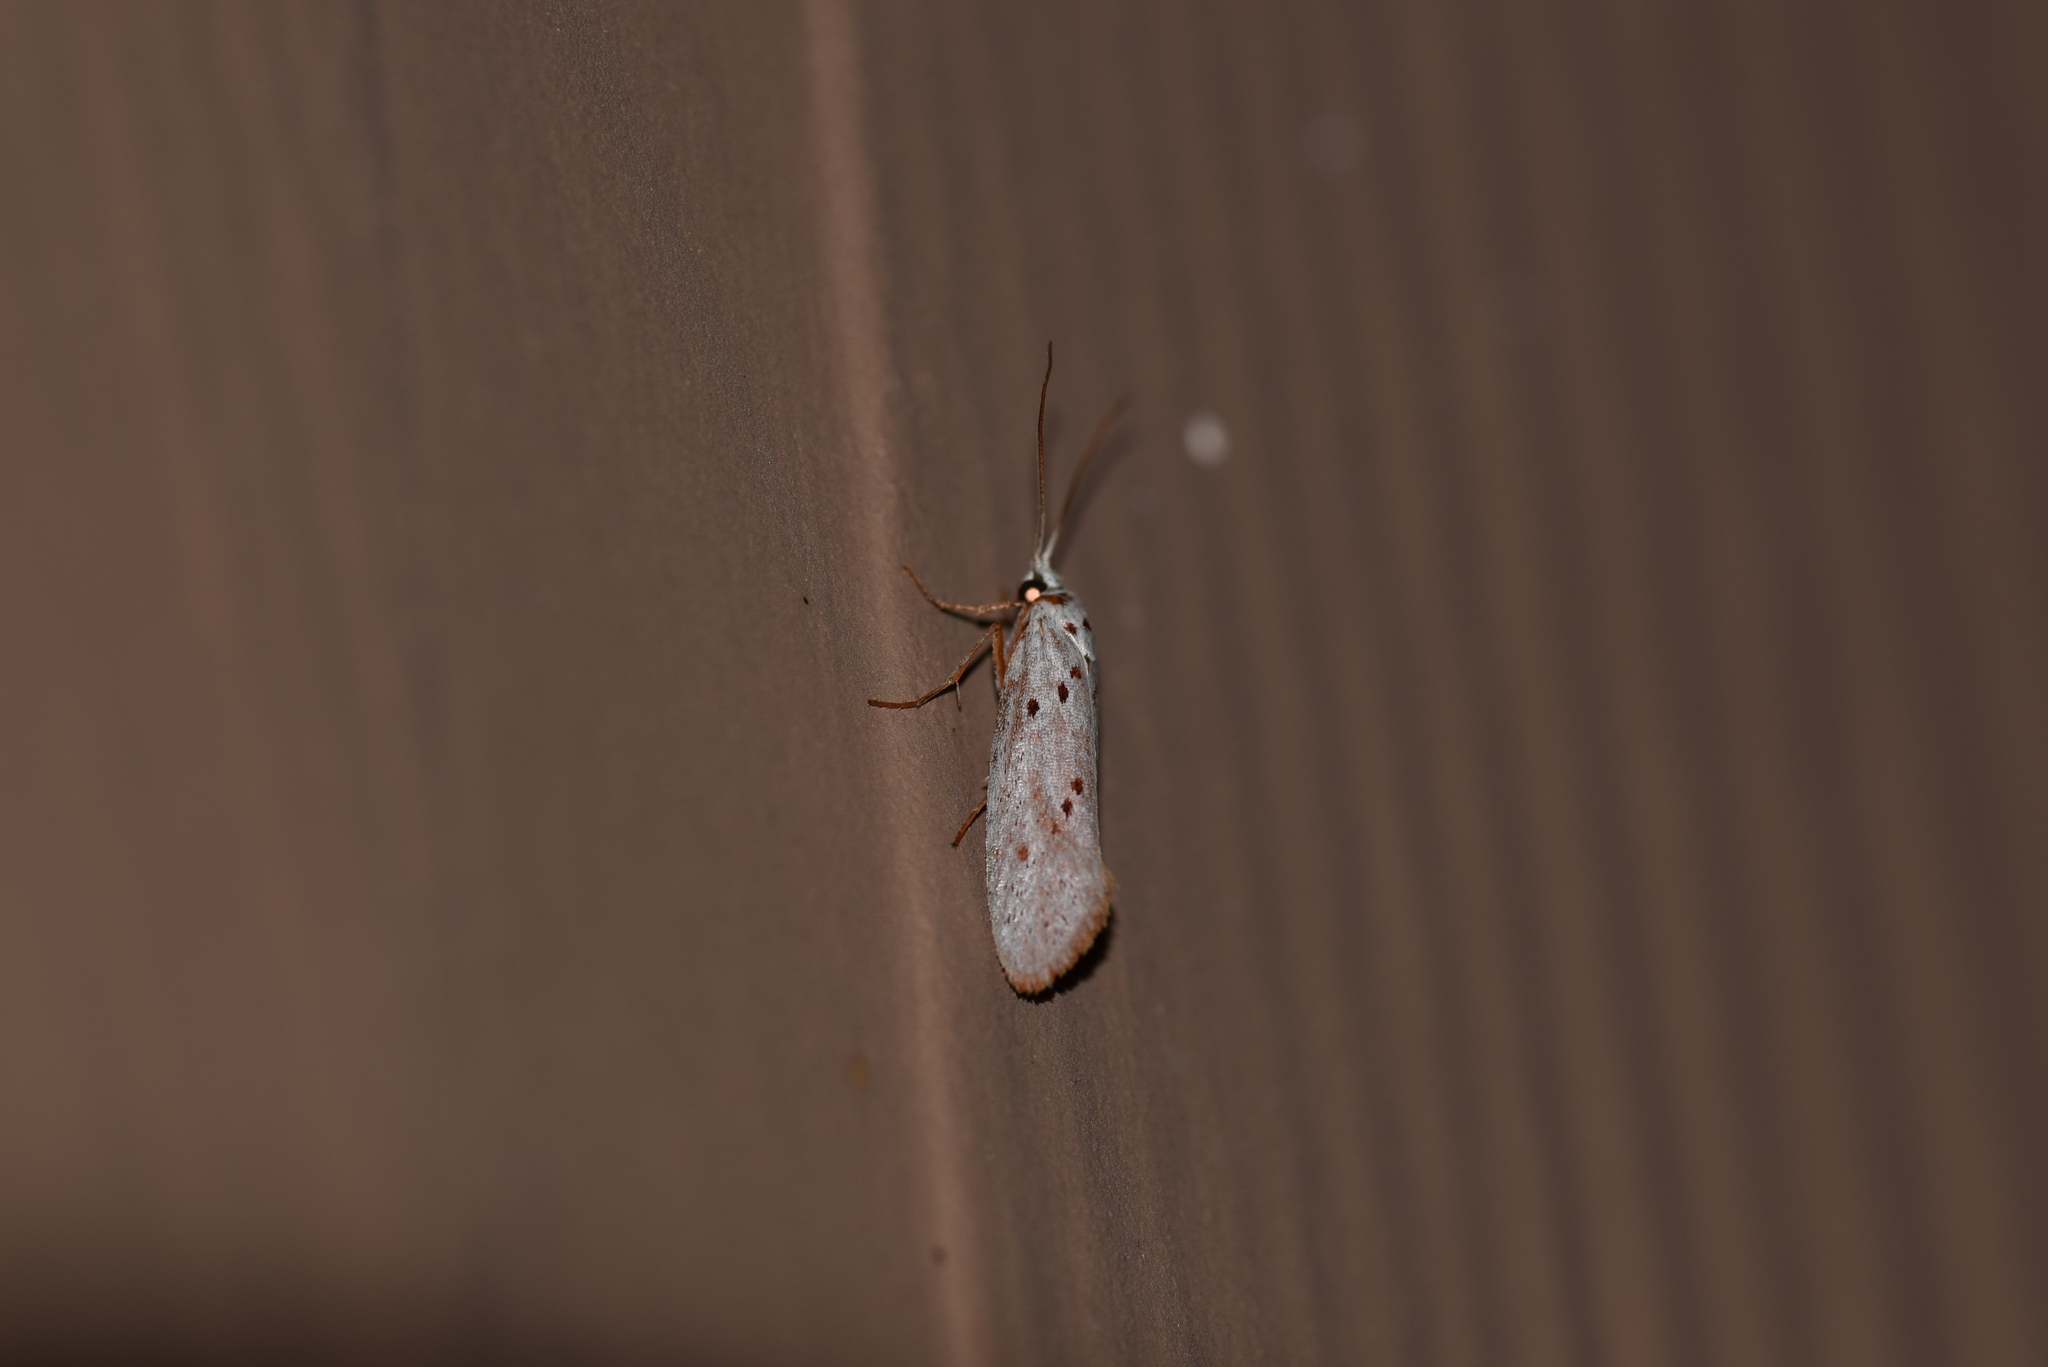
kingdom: Animalia
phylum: Arthropoda
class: Insecta
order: Lepidoptera
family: Lacturidae
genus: Lactura
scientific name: Lactura
